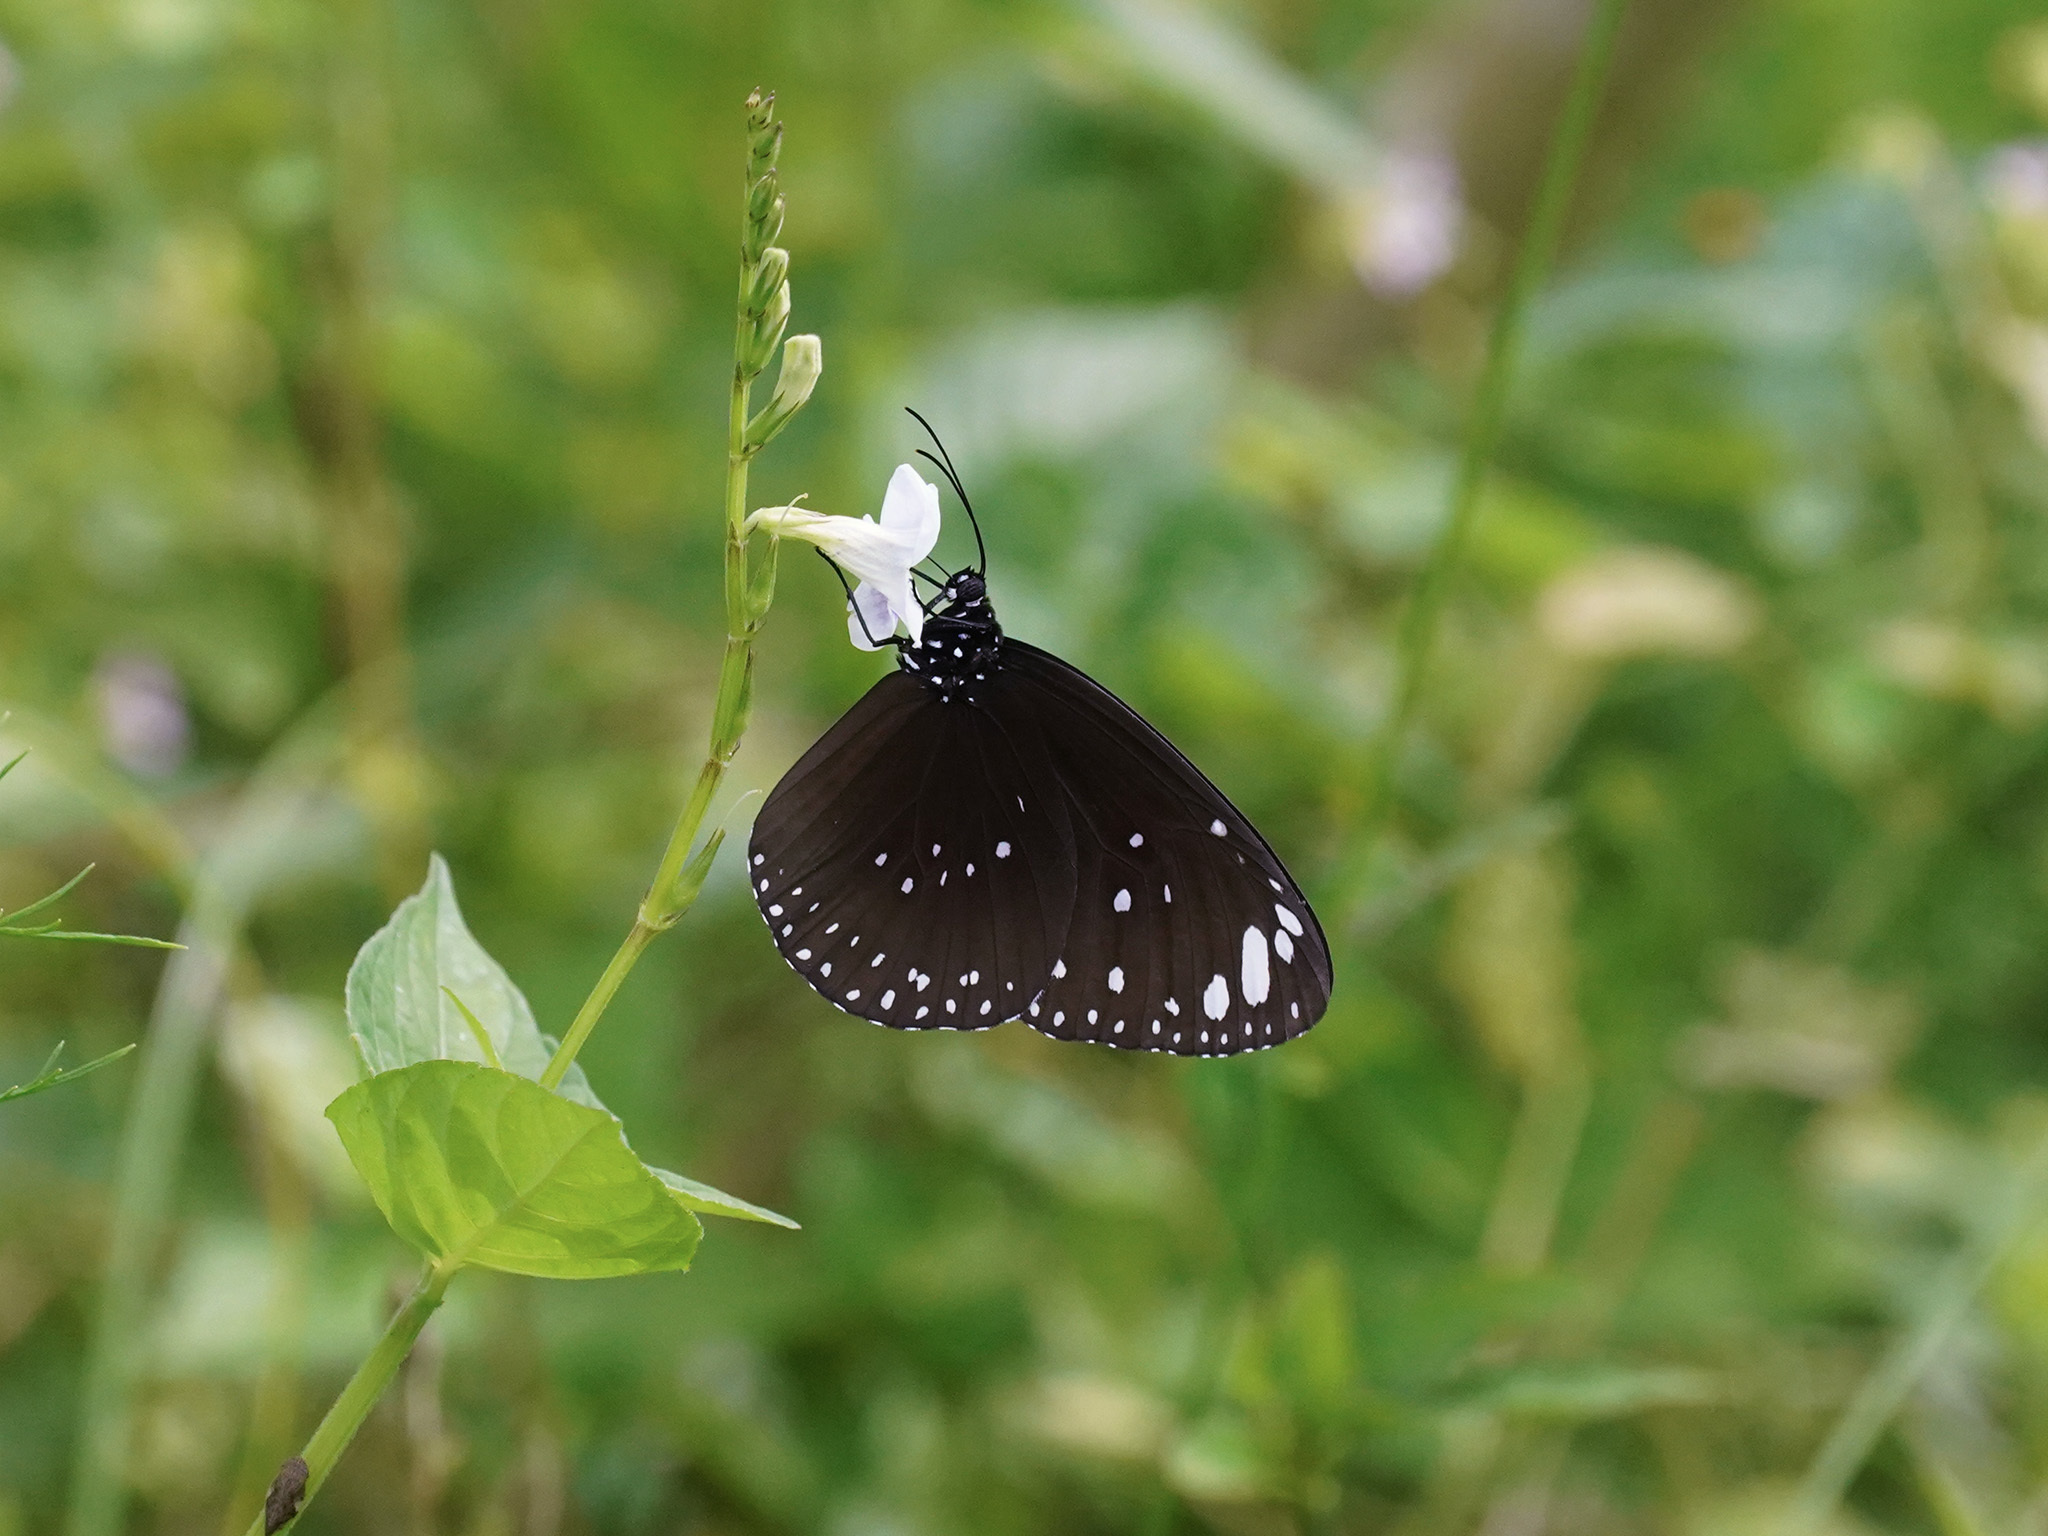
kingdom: Animalia
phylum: Arthropoda
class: Insecta
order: Lepidoptera
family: Nymphalidae
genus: Euploea
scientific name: Euploea crameri
